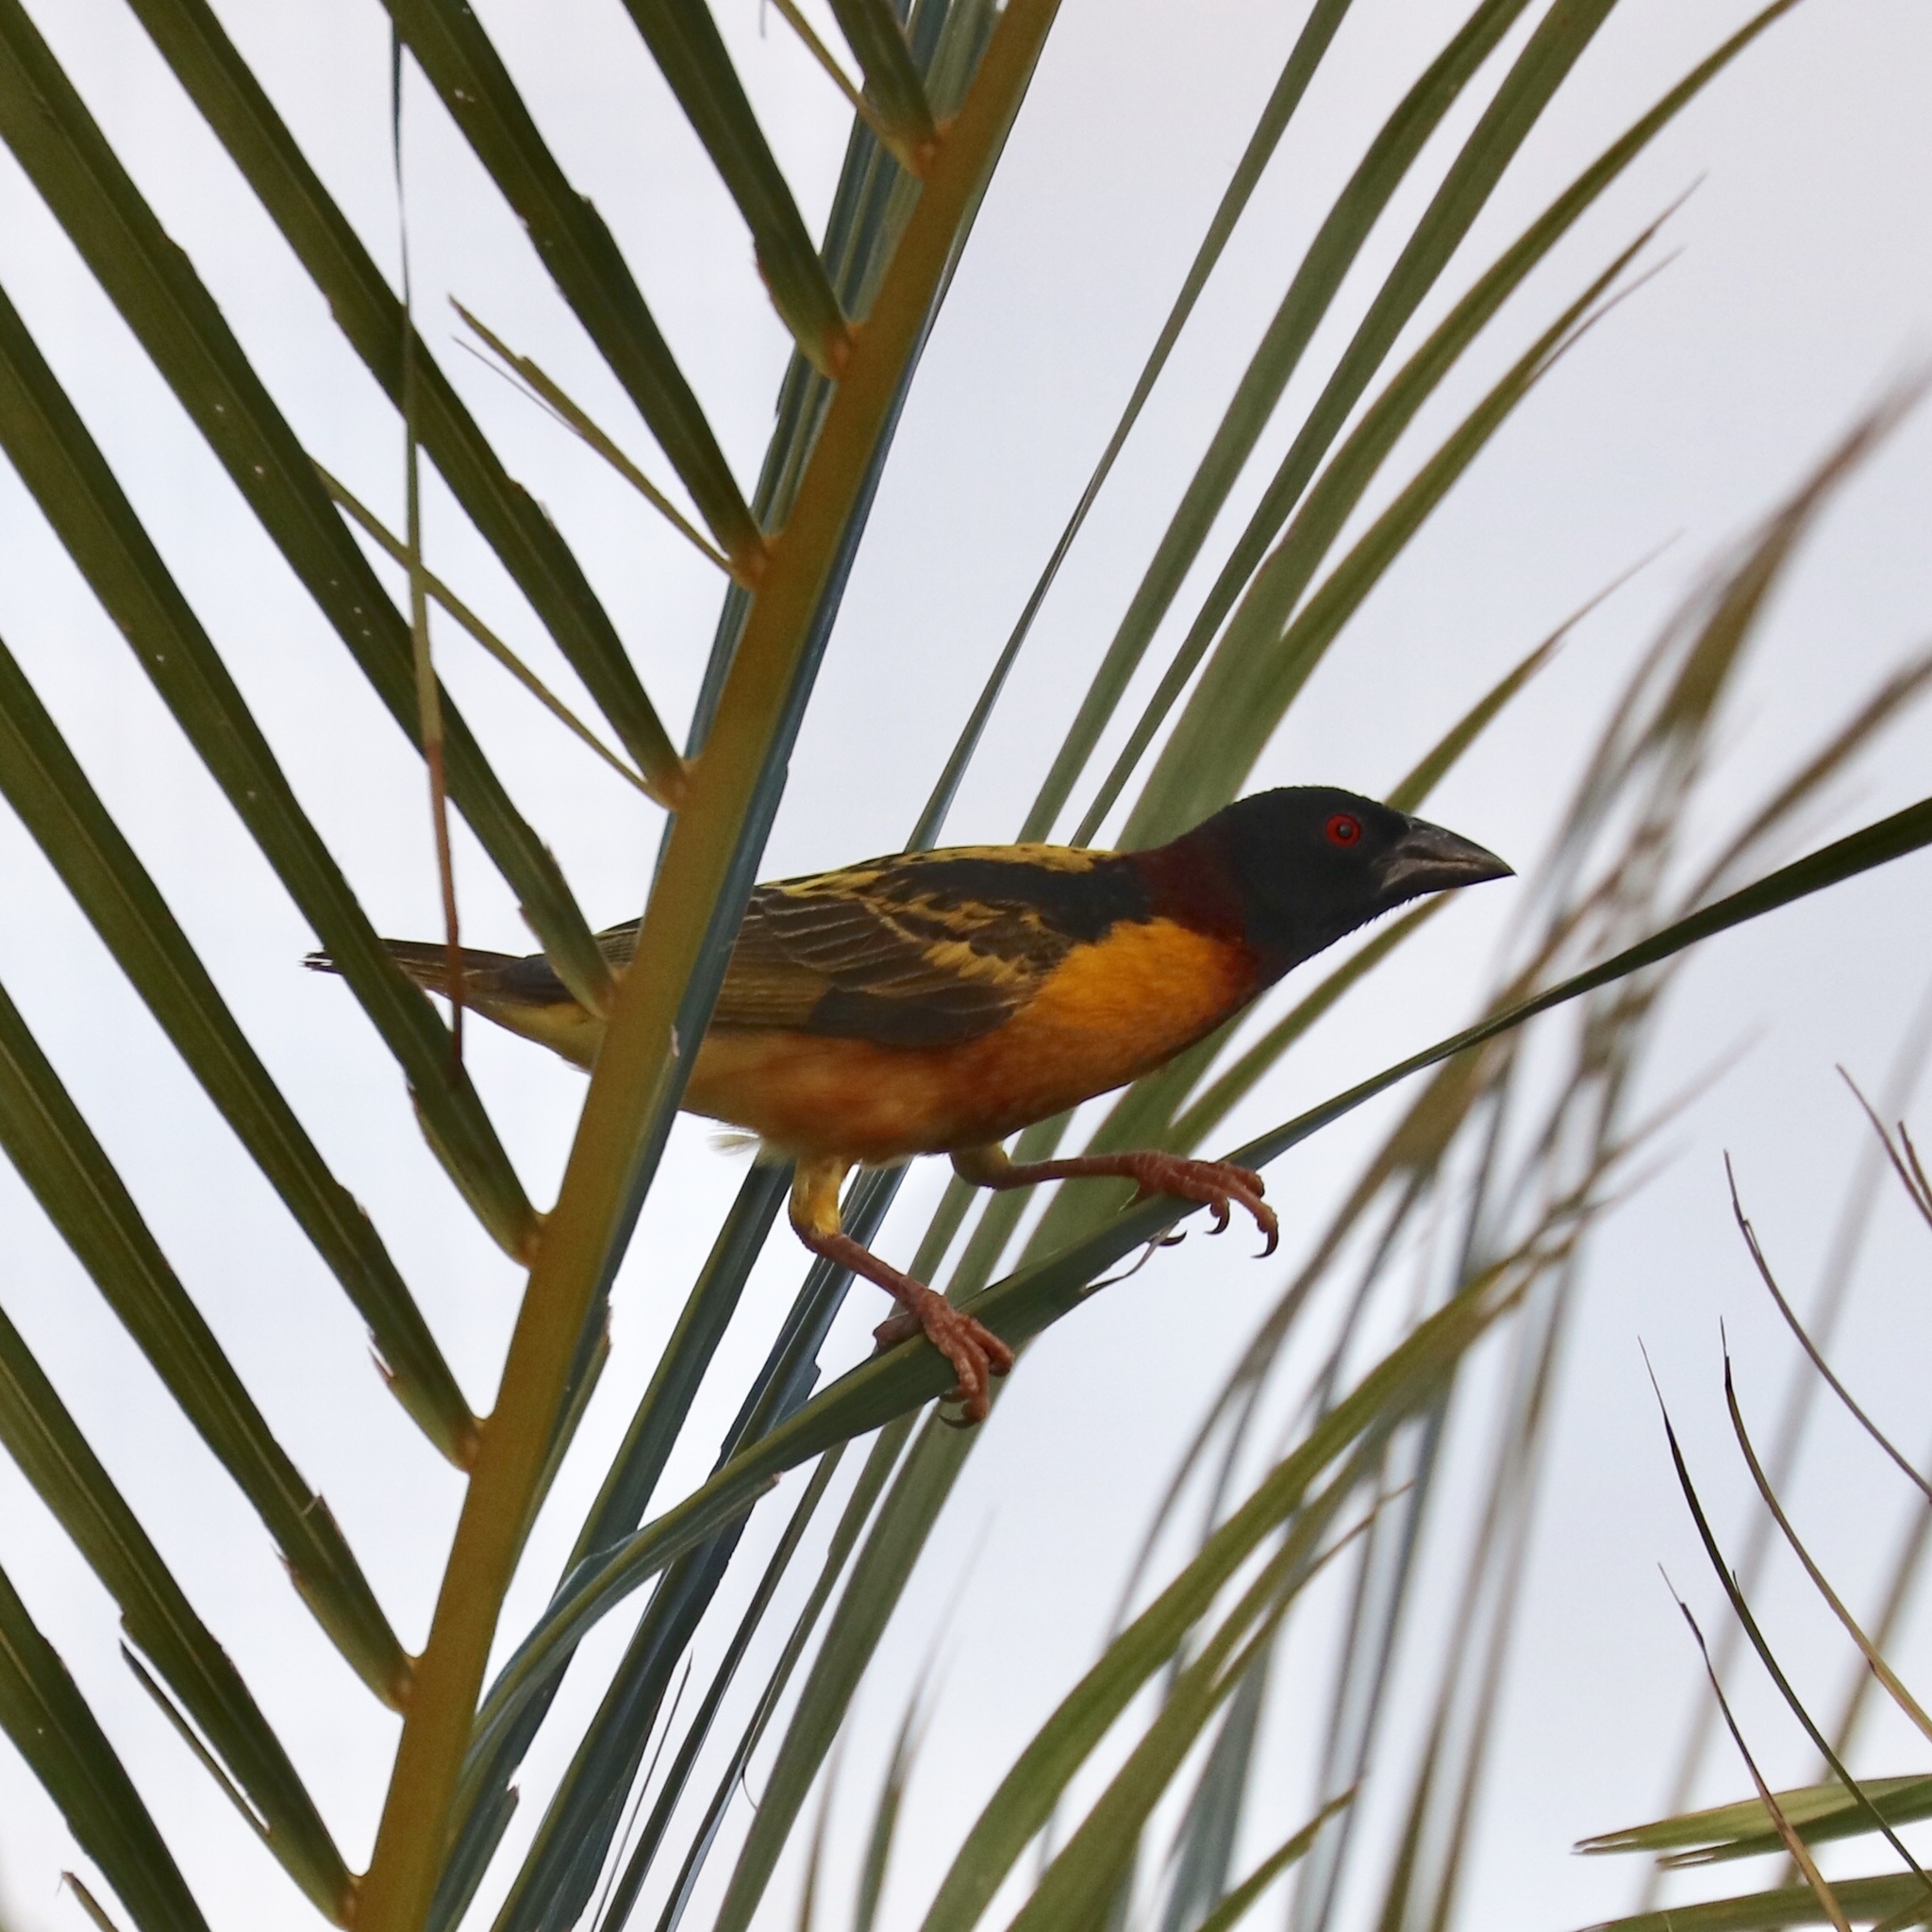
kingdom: Animalia
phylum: Chordata
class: Aves
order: Passeriformes
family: Ploceidae
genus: Ploceus
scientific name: Ploceus cucullatus
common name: Village weaver
